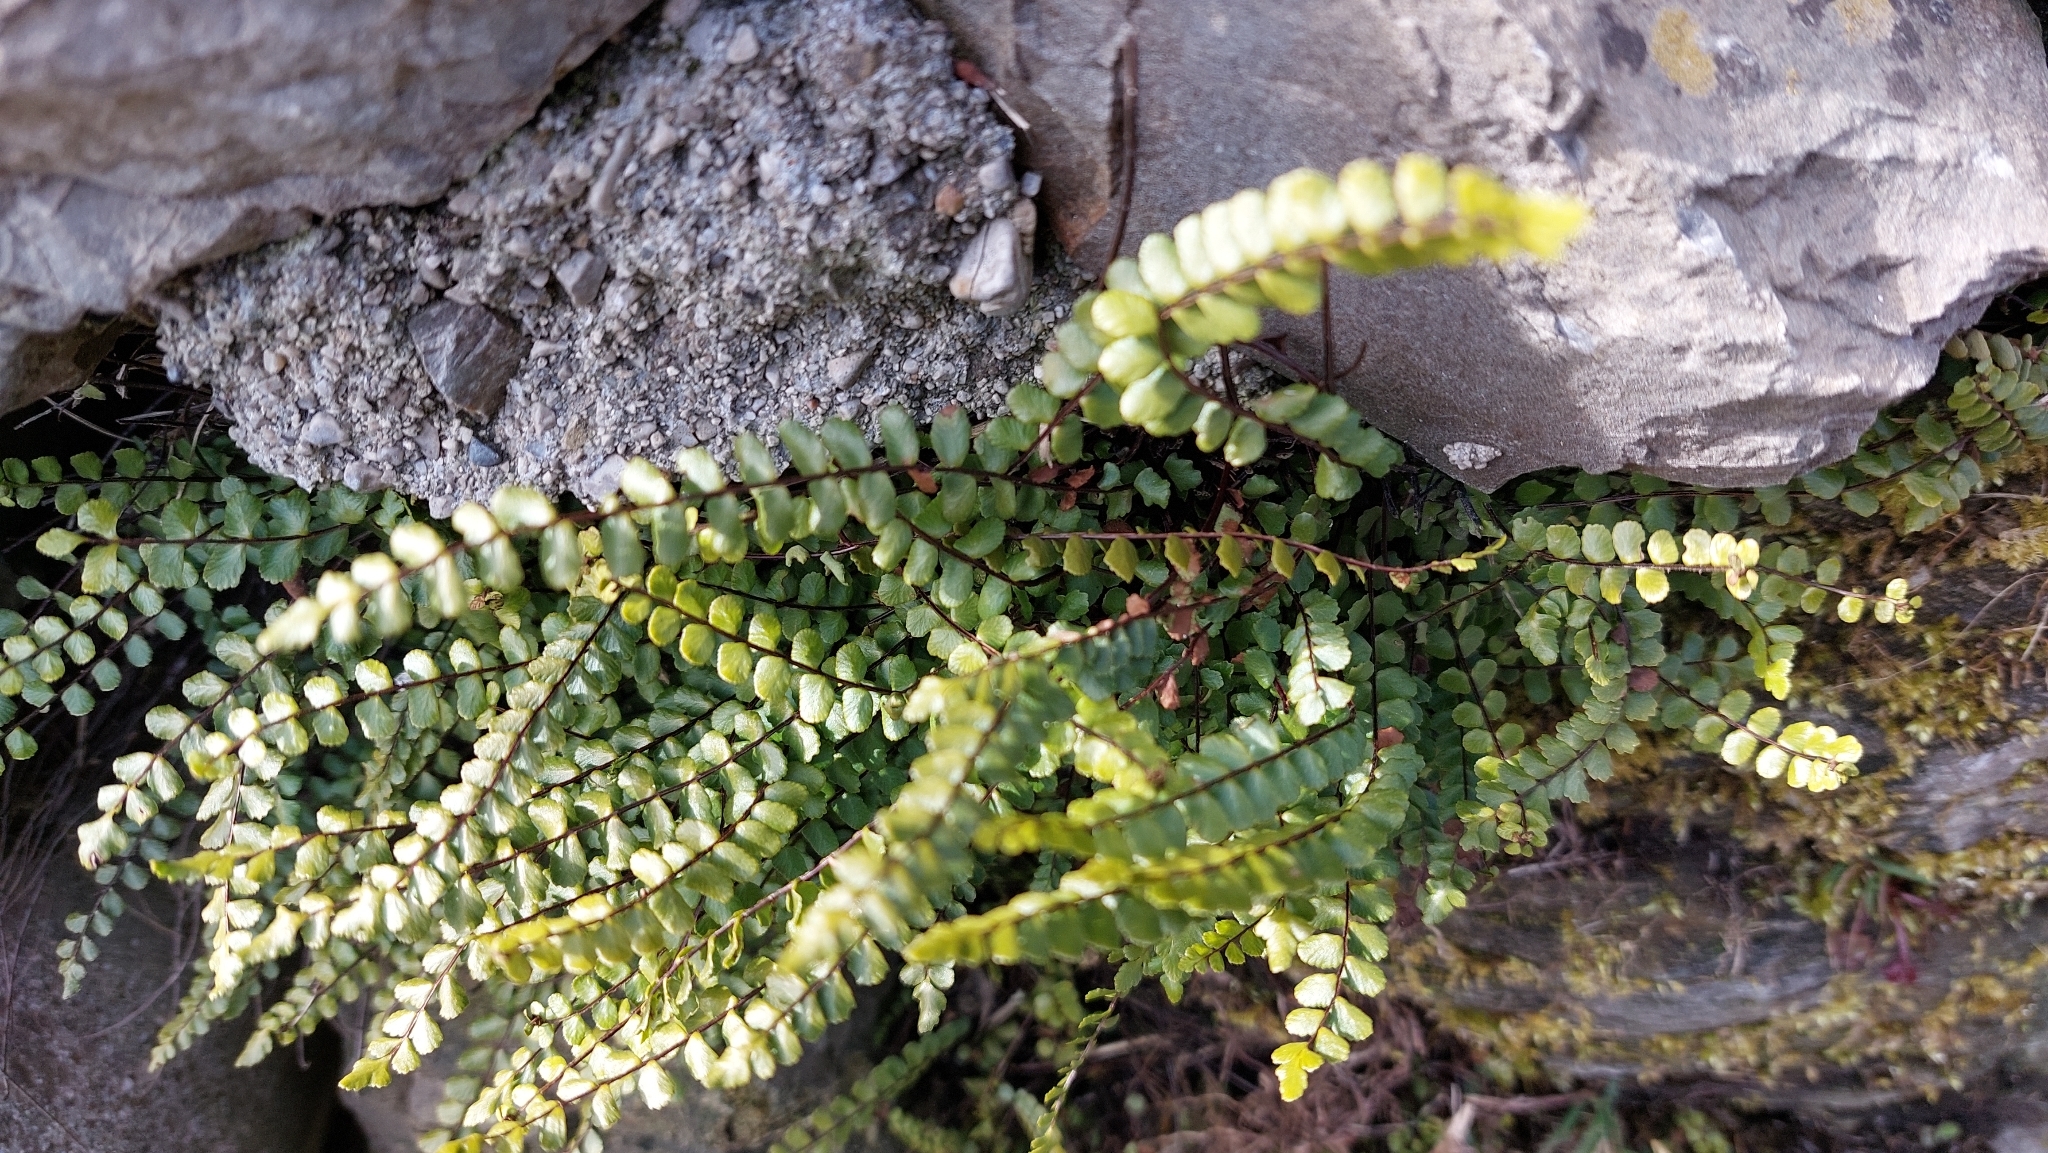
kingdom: Plantae
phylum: Tracheophyta
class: Polypodiopsida
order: Polypodiales
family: Aspleniaceae
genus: Asplenium
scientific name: Asplenium trichomanes
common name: Maidenhair spleenwort
